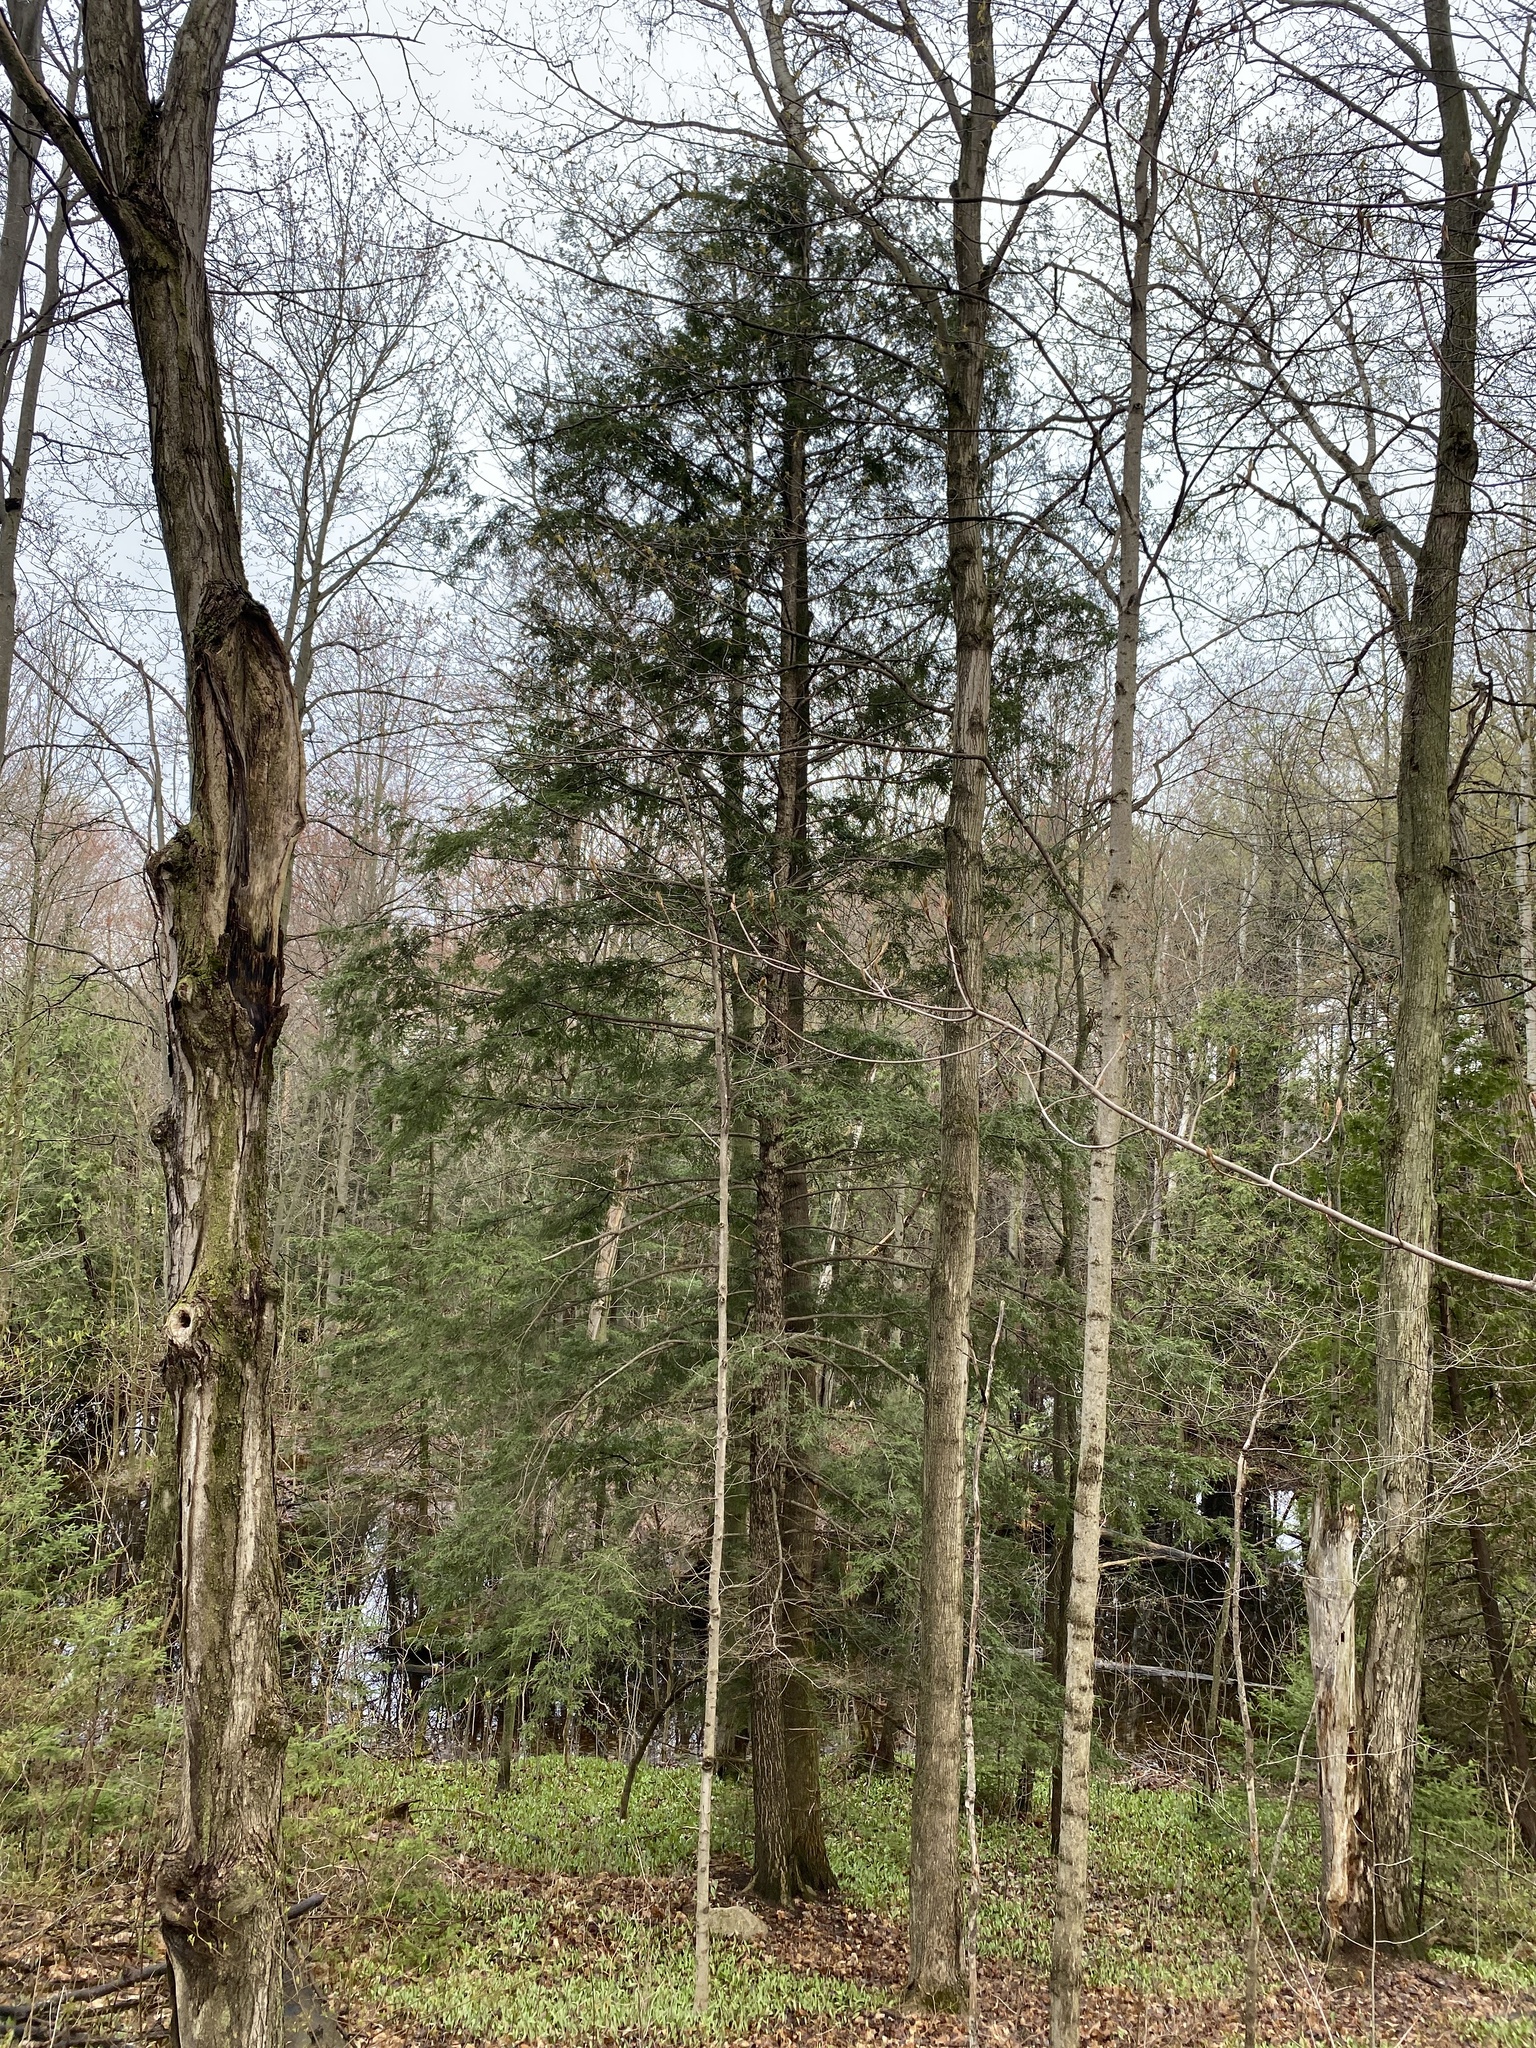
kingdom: Plantae
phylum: Tracheophyta
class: Pinopsida
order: Pinales
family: Pinaceae
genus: Tsuga
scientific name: Tsuga canadensis
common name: Eastern hemlock
